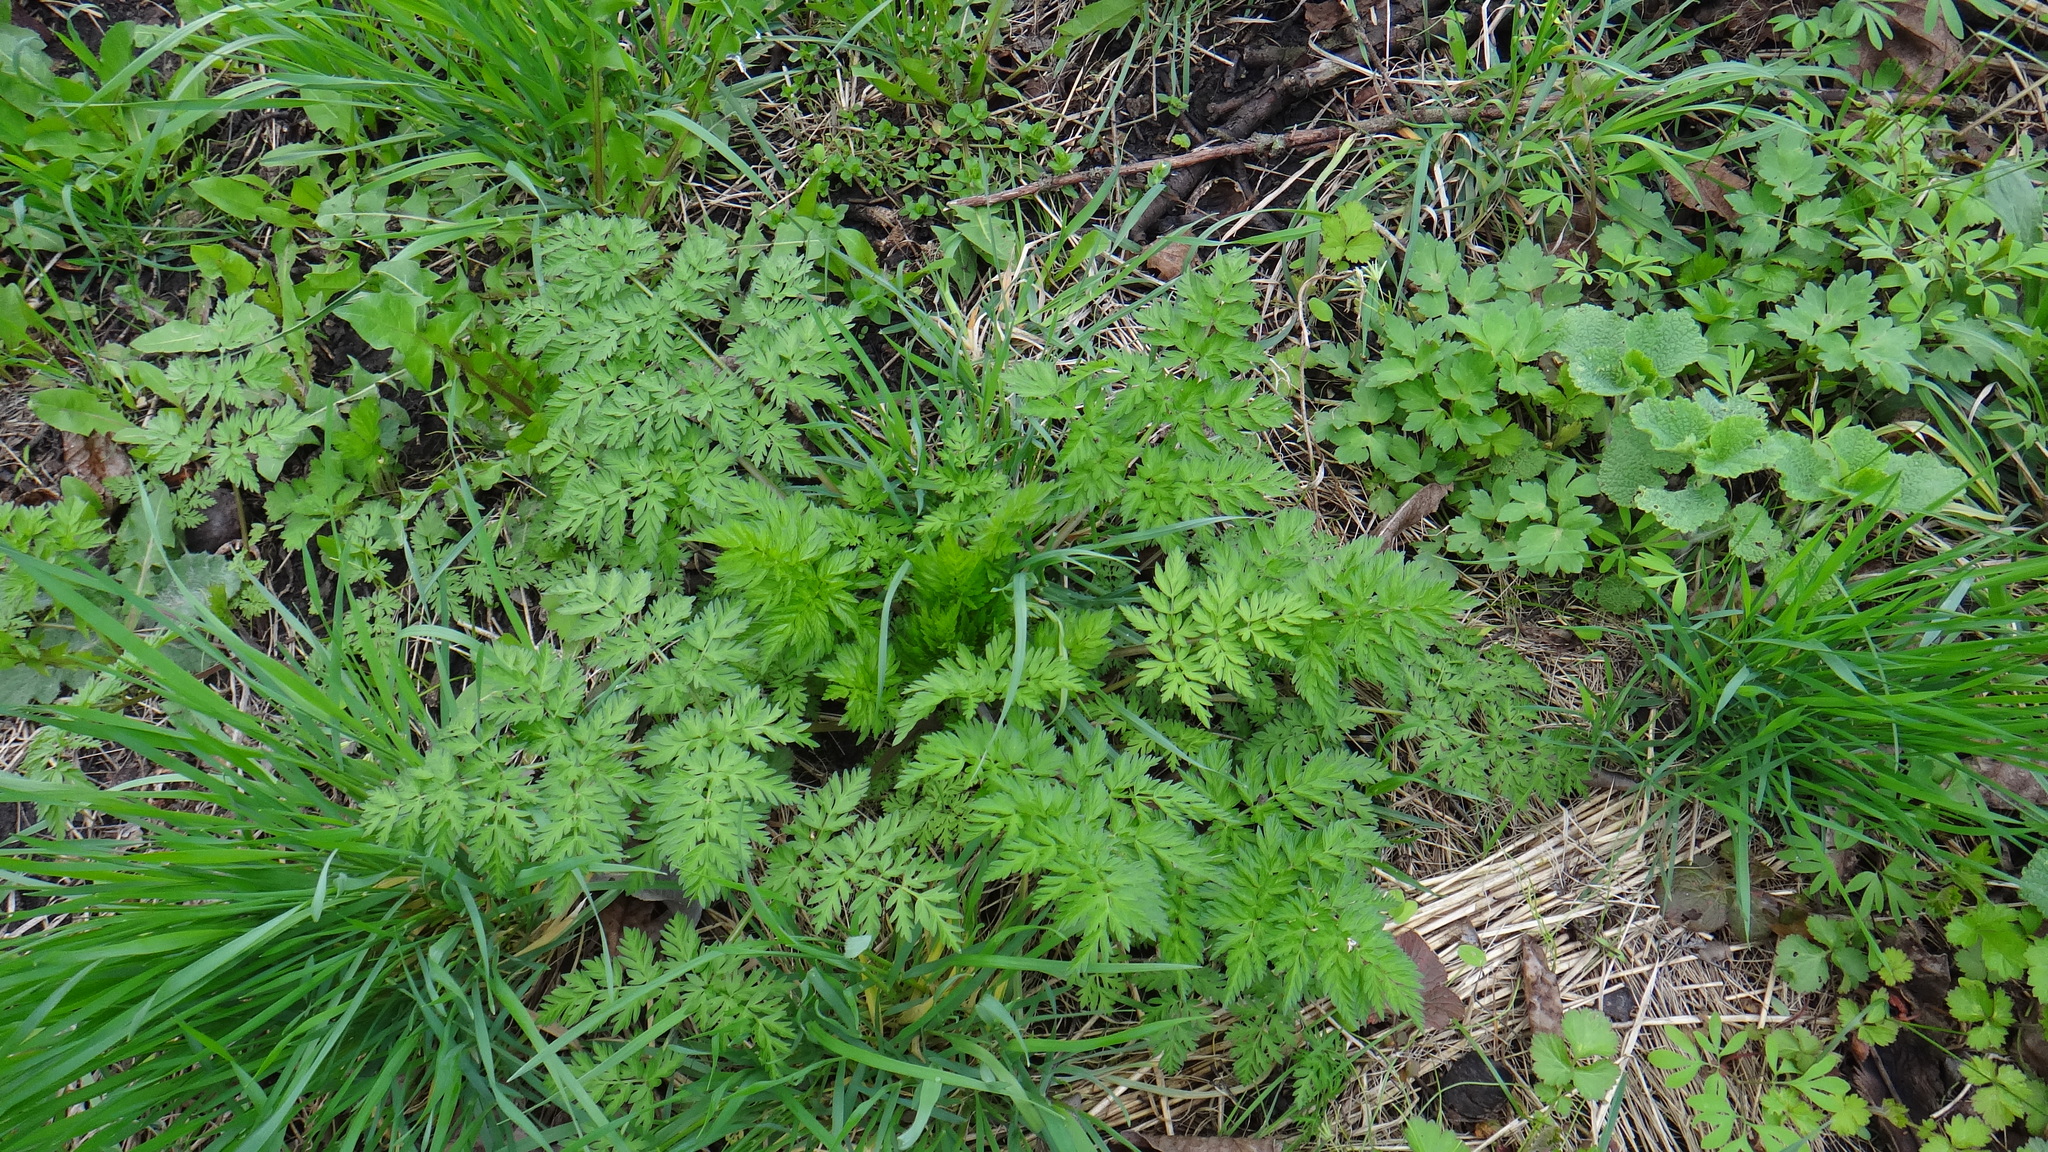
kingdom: Plantae
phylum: Tracheophyta
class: Magnoliopsida
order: Apiales
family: Apiaceae
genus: Anthriscus
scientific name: Anthriscus sylvestris
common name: Cow parsley
